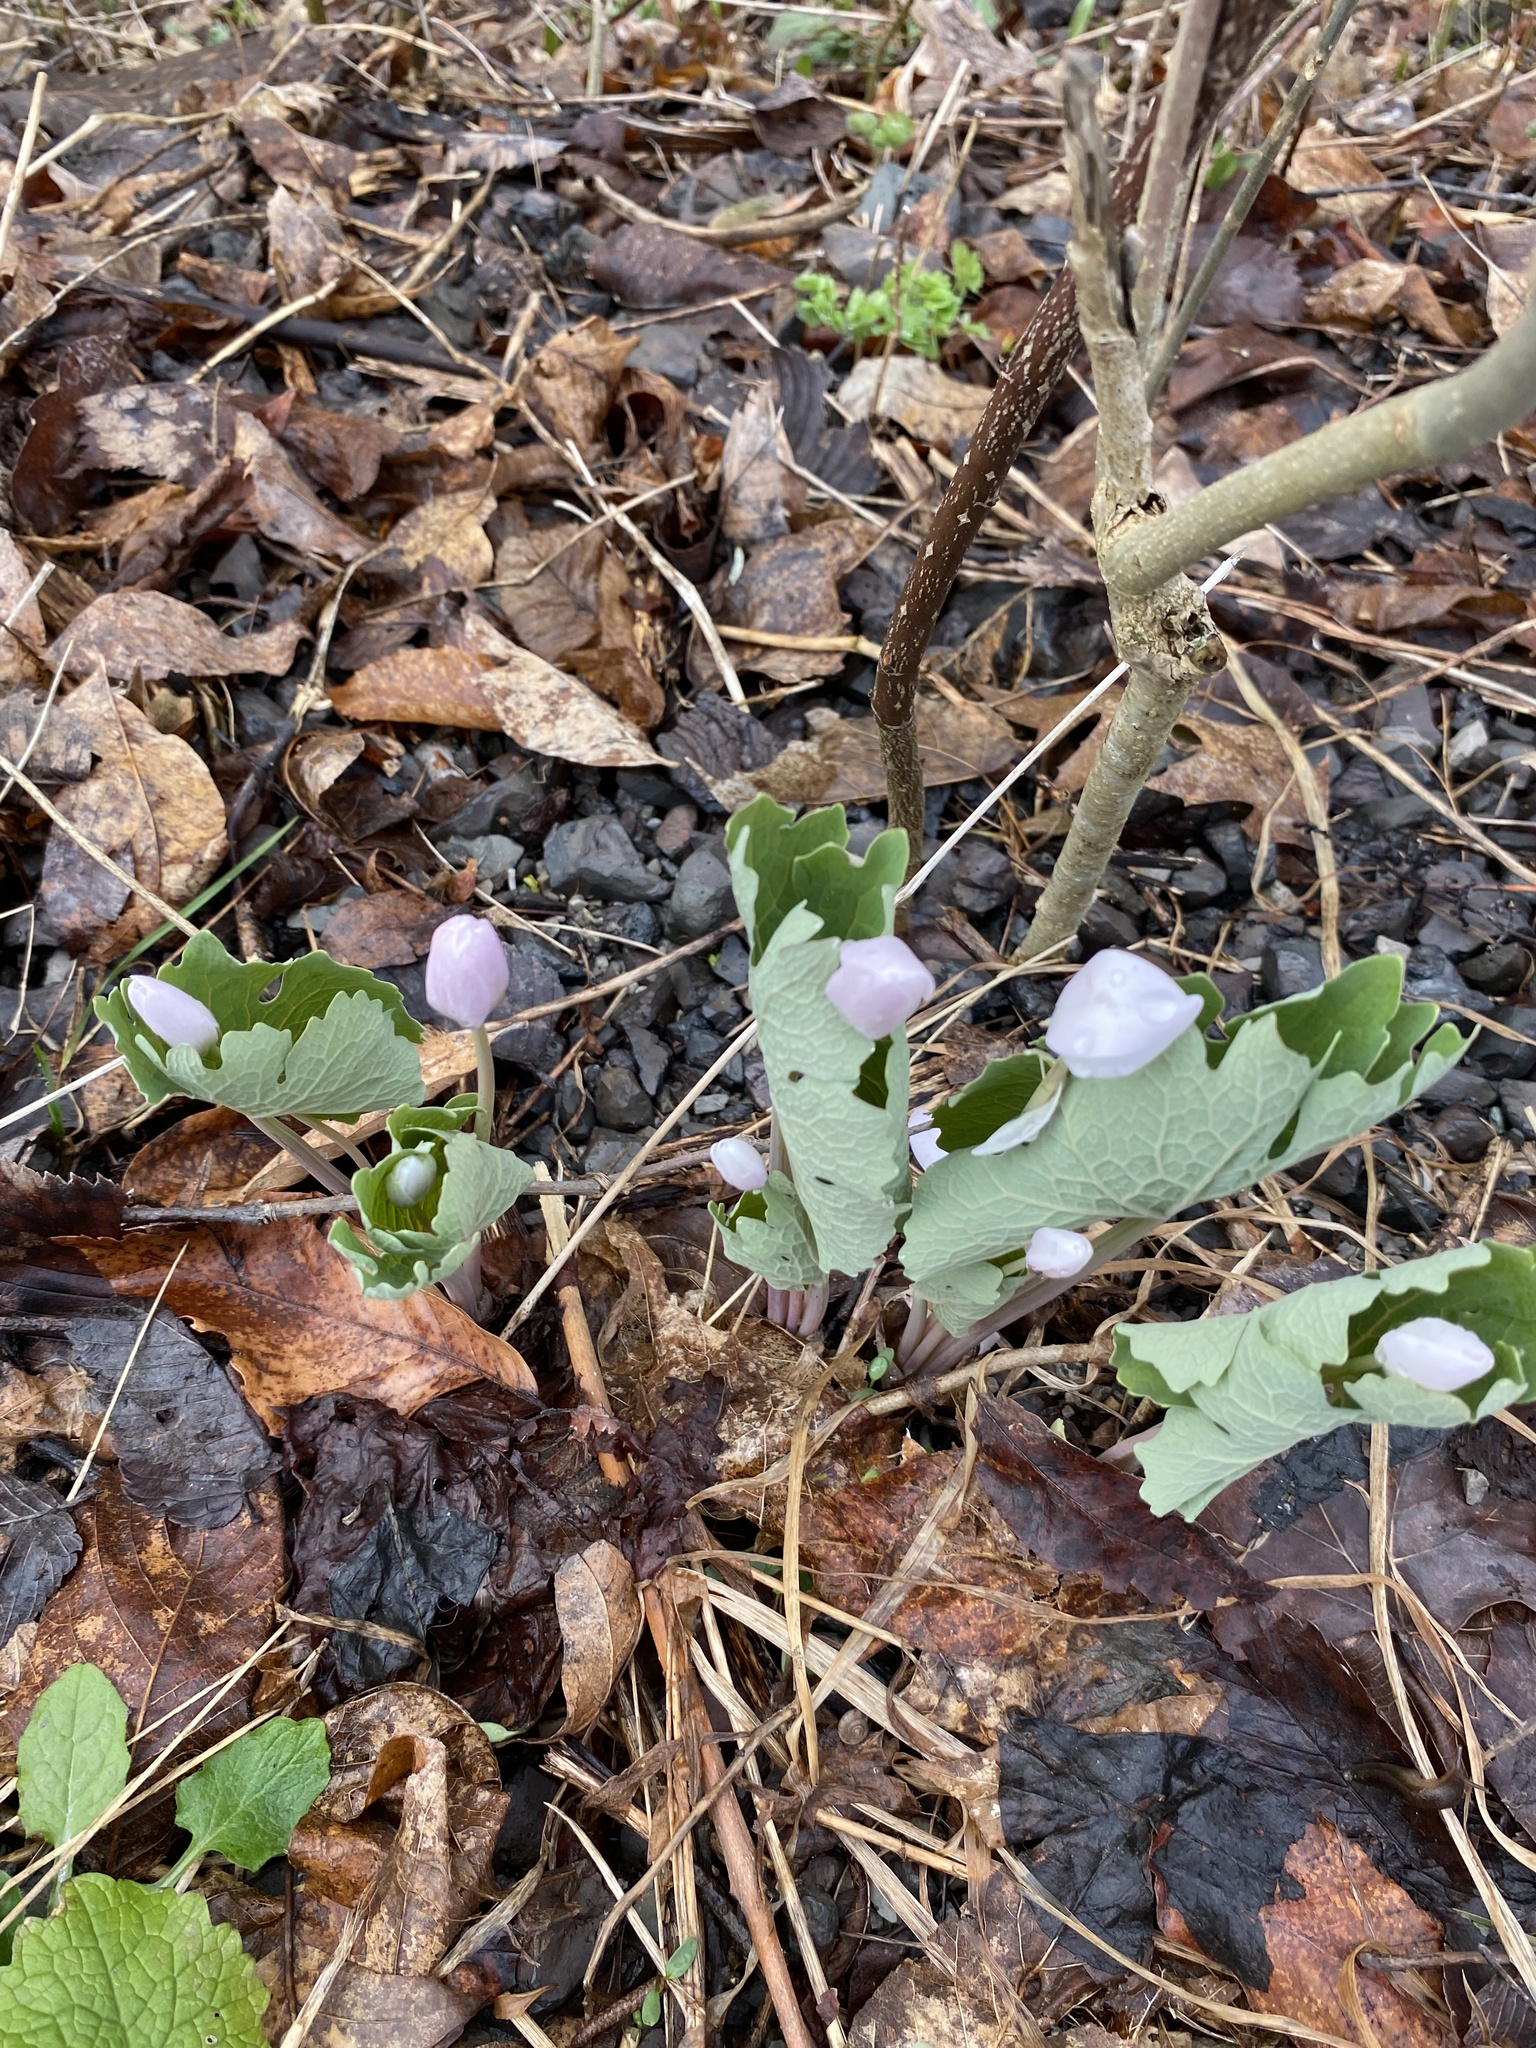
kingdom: Plantae
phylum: Tracheophyta
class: Magnoliopsida
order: Ranunculales
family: Papaveraceae
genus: Sanguinaria
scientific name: Sanguinaria canadensis
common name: Bloodroot
